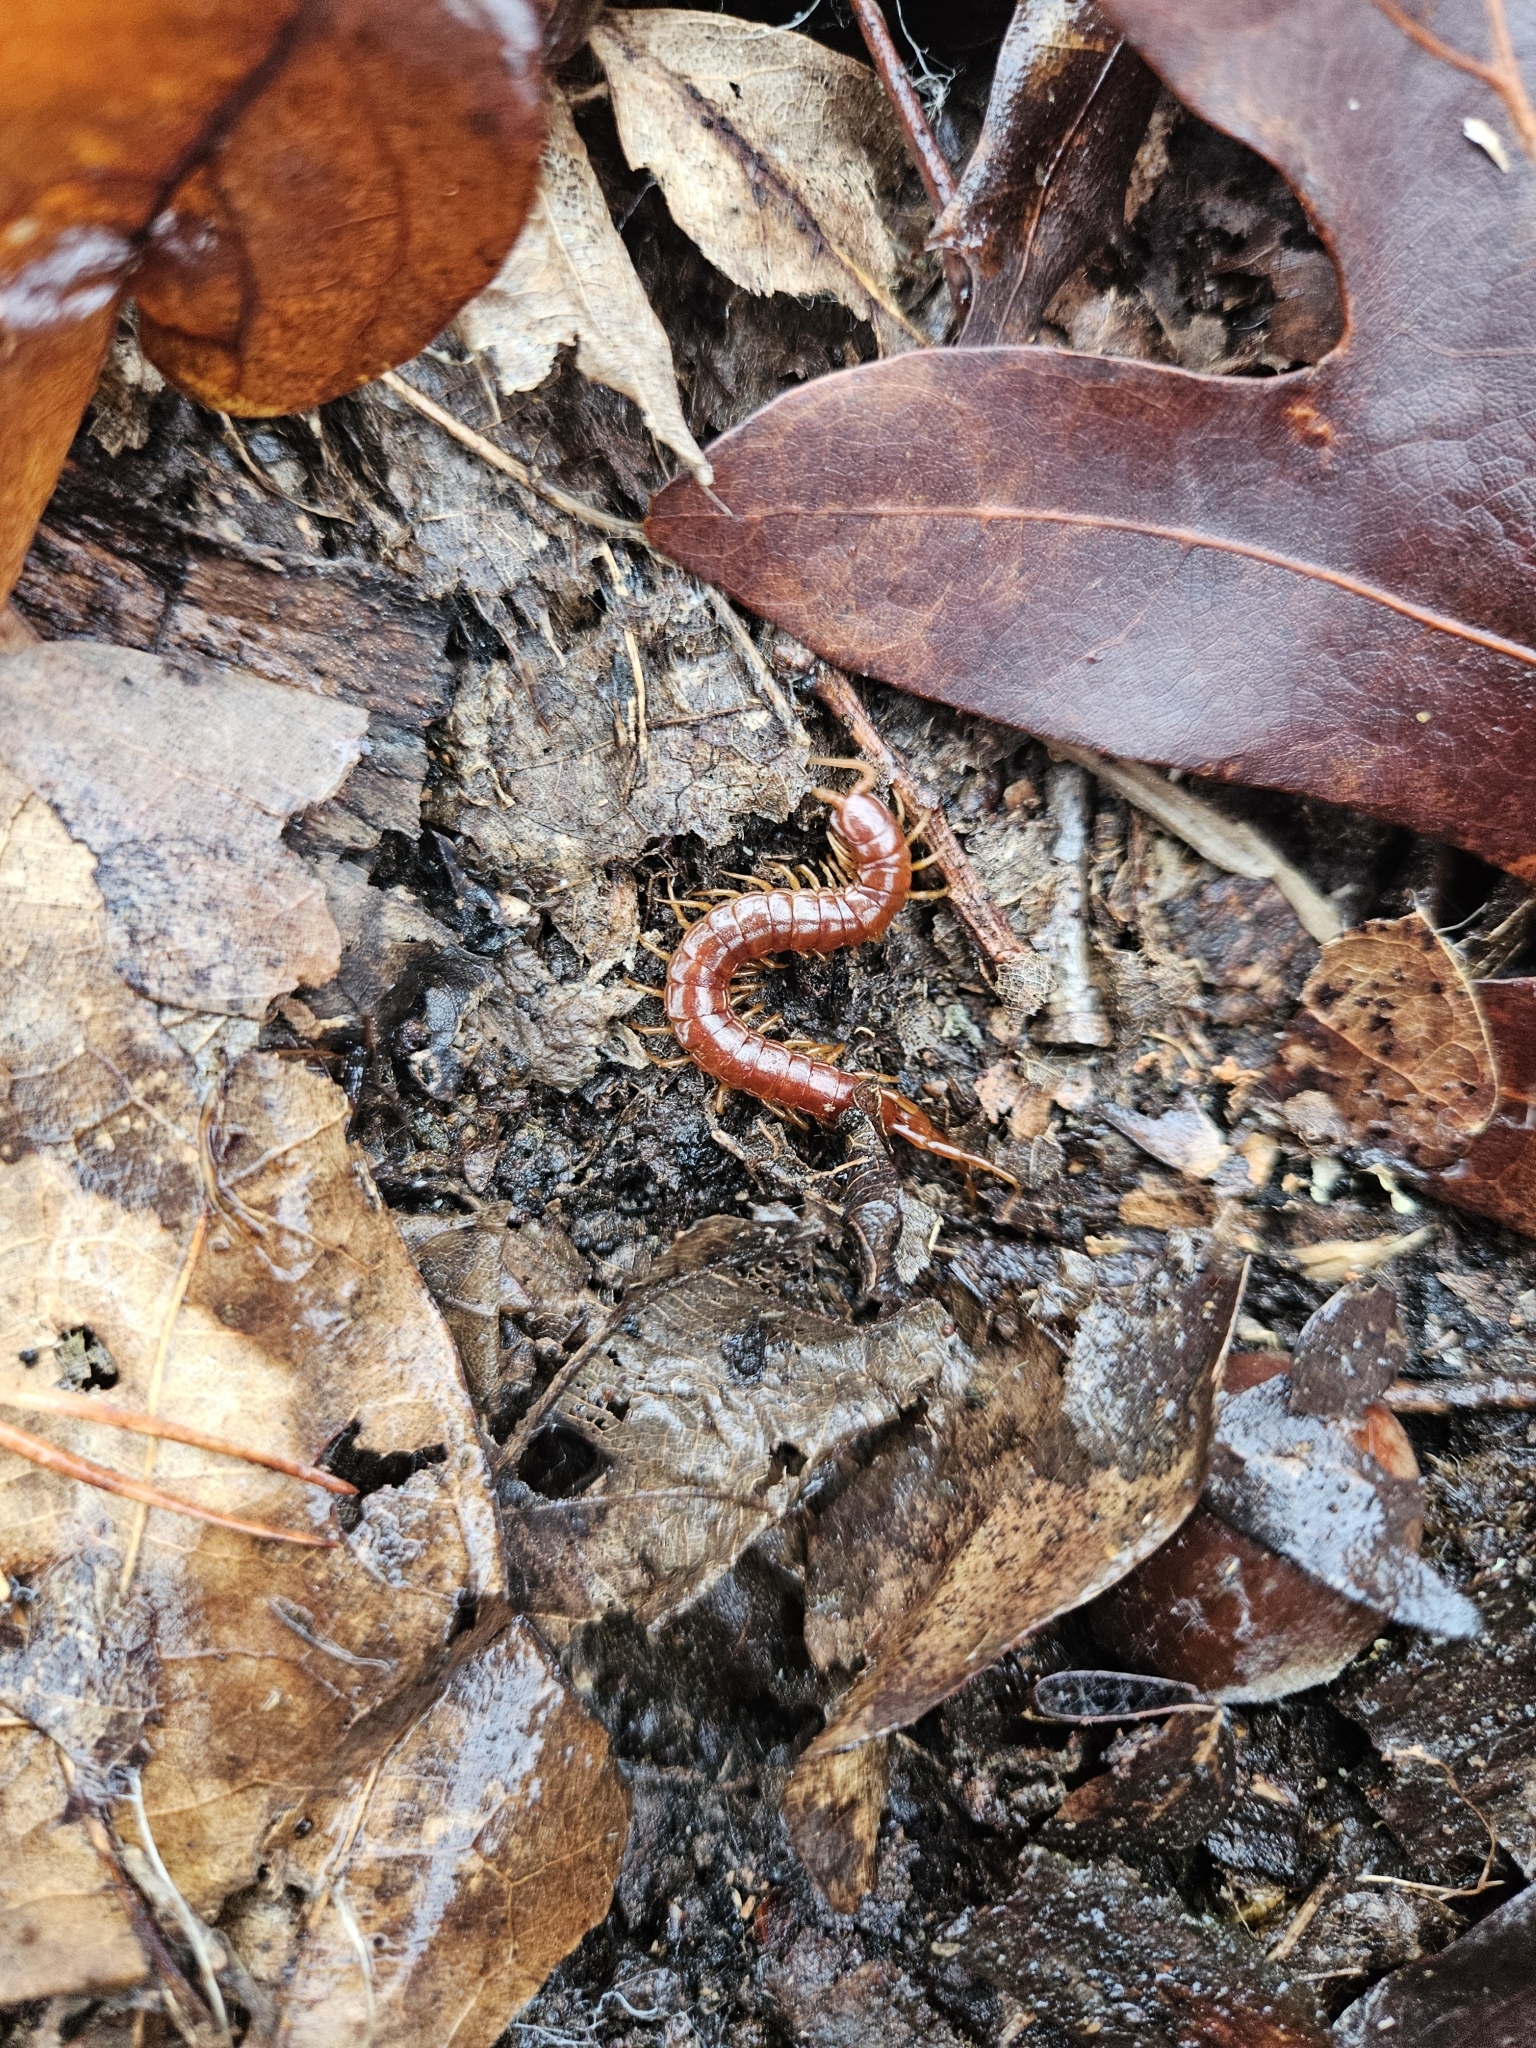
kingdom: Animalia
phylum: Arthropoda
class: Chilopoda
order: Scolopendromorpha
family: Scolopocryptopidae
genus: Scolopocryptops
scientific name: Scolopocryptops sexspinosus
